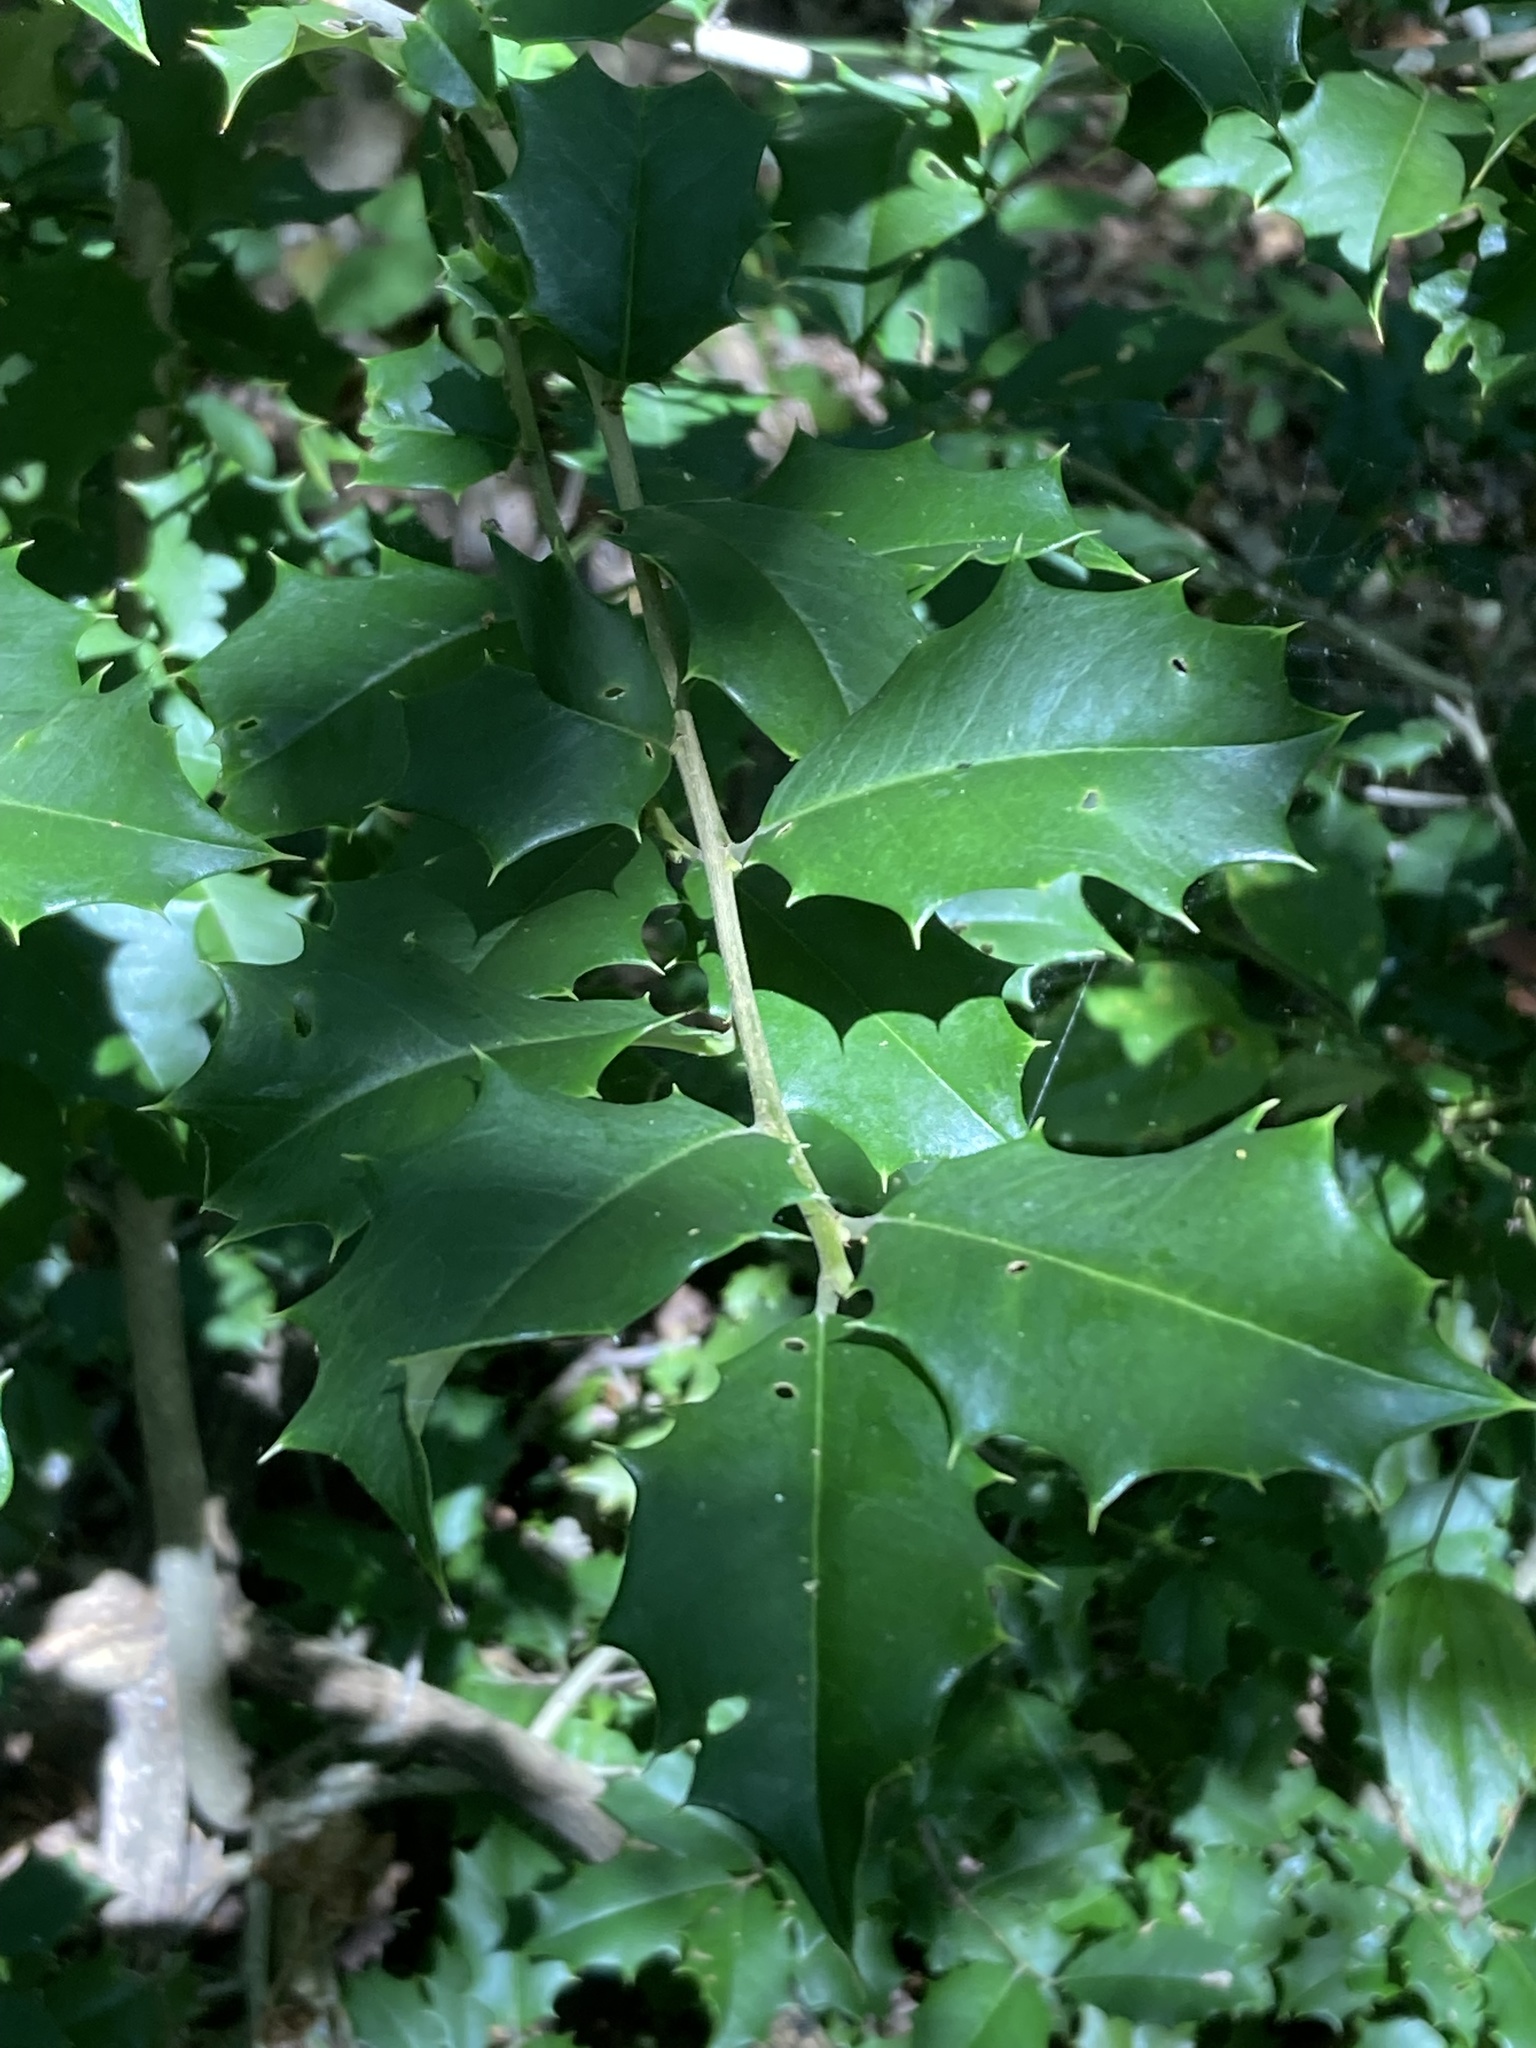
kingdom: Plantae
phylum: Tracheophyta
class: Magnoliopsida
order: Aquifoliales
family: Aquifoliaceae
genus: Ilex
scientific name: Ilex opaca
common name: American holly
